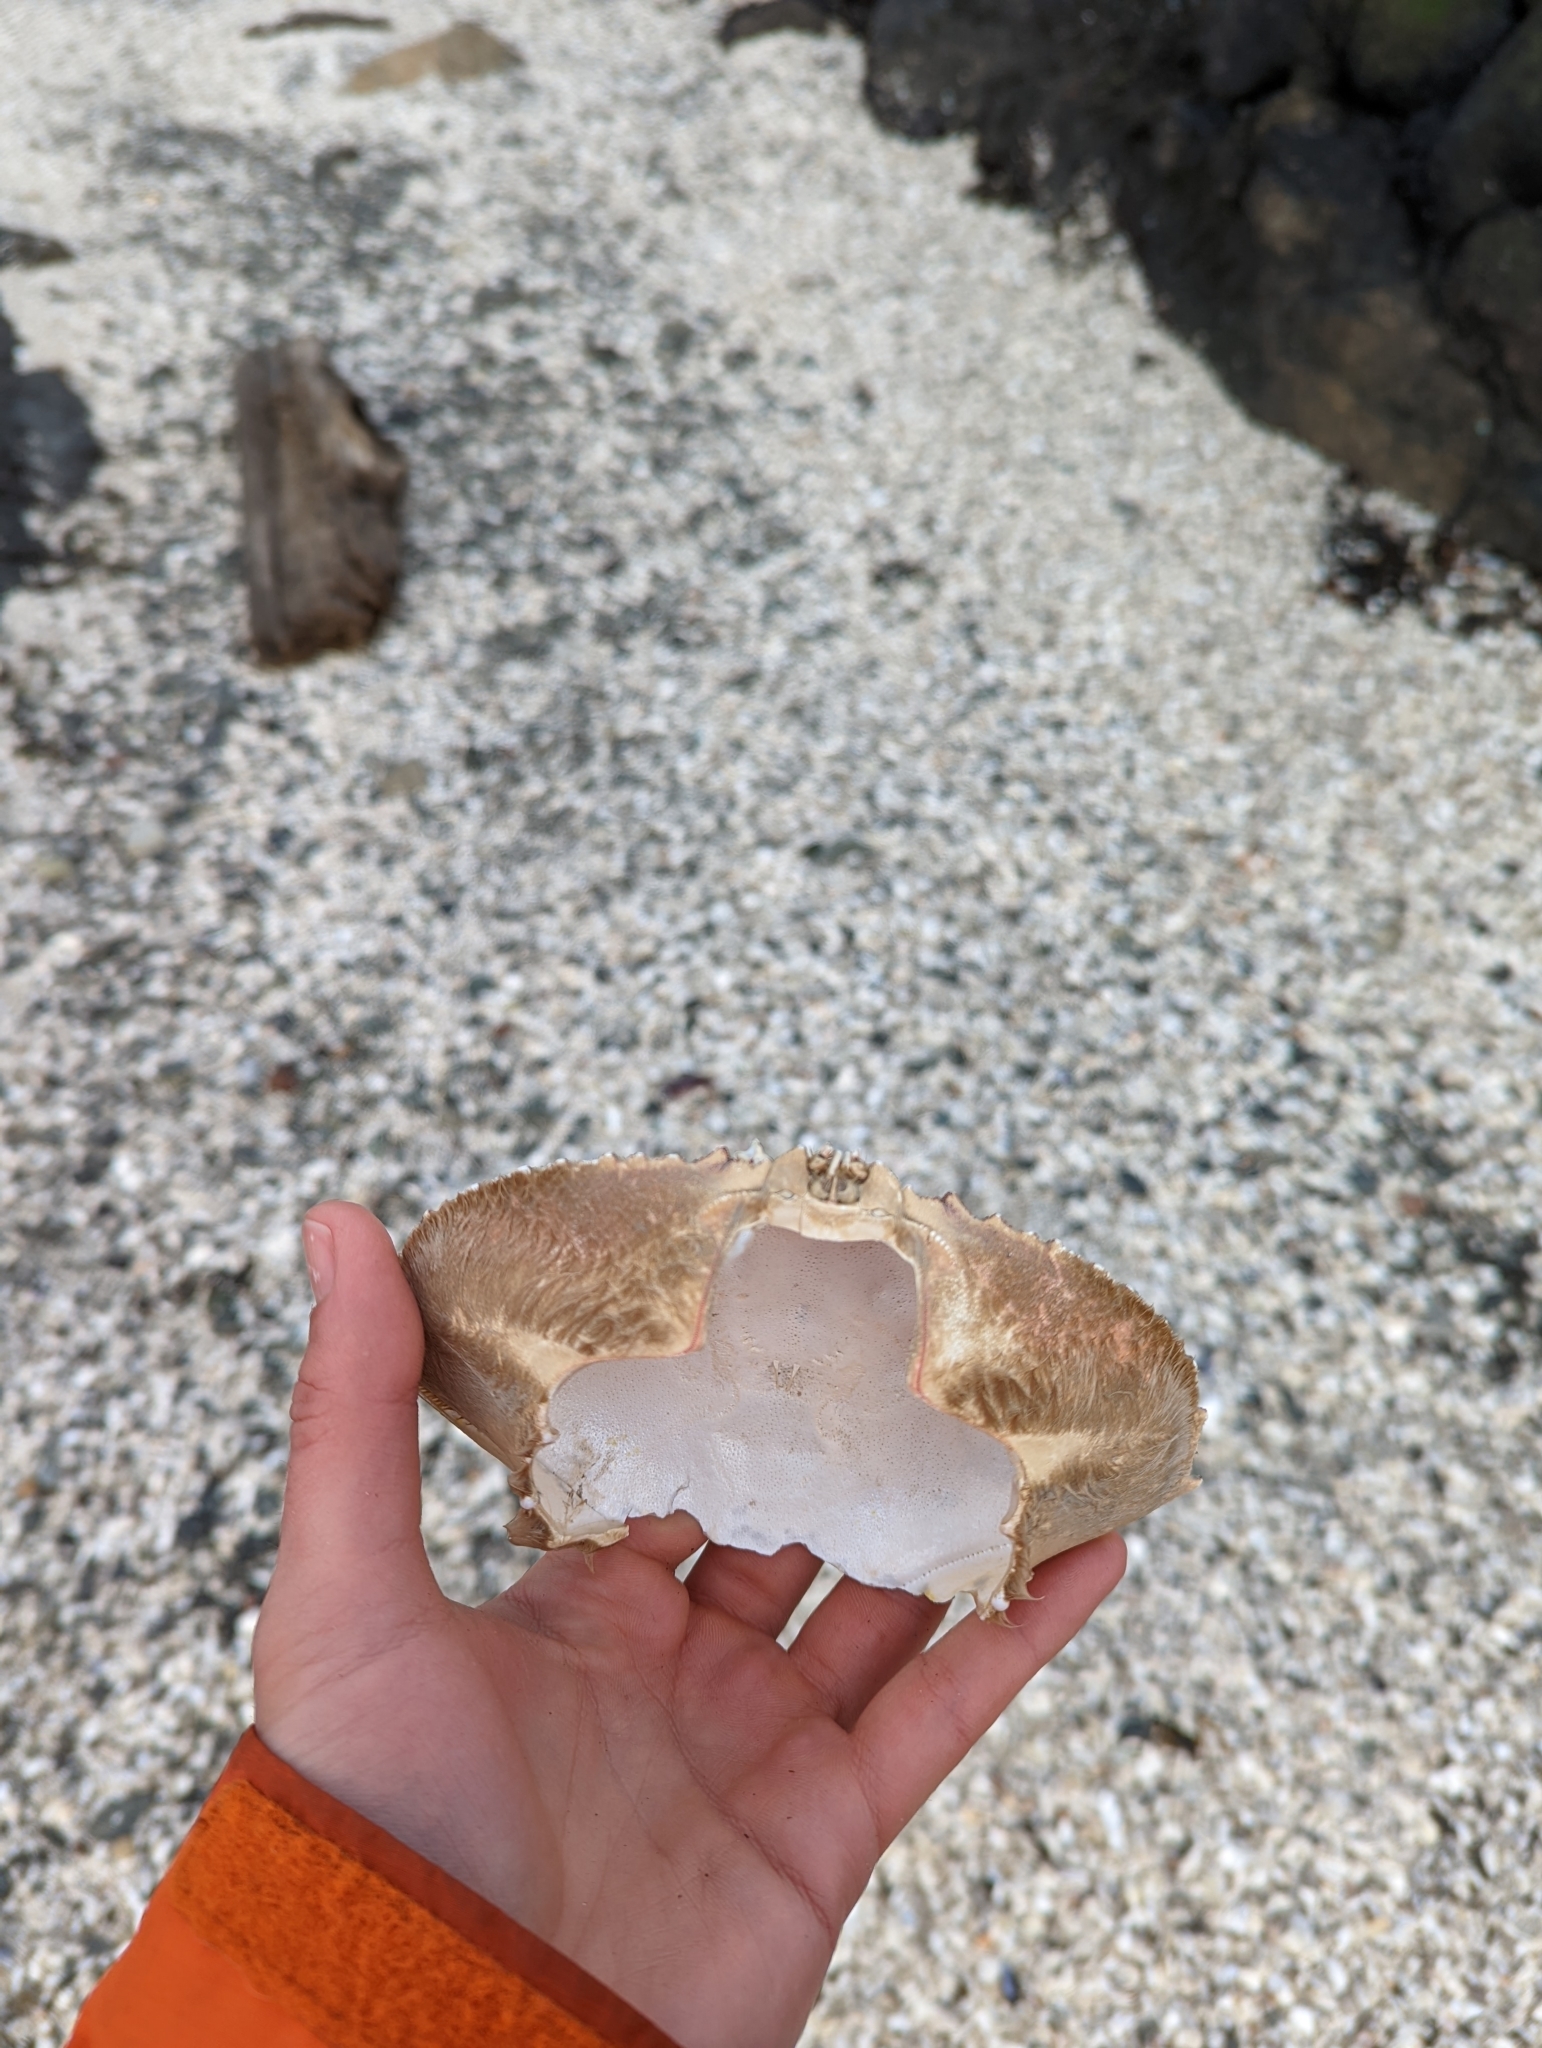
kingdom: Animalia
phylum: Arthropoda
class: Malacostraca
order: Decapoda
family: Cancridae
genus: Metacarcinus
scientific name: Metacarcinus magister
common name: Californian crab
